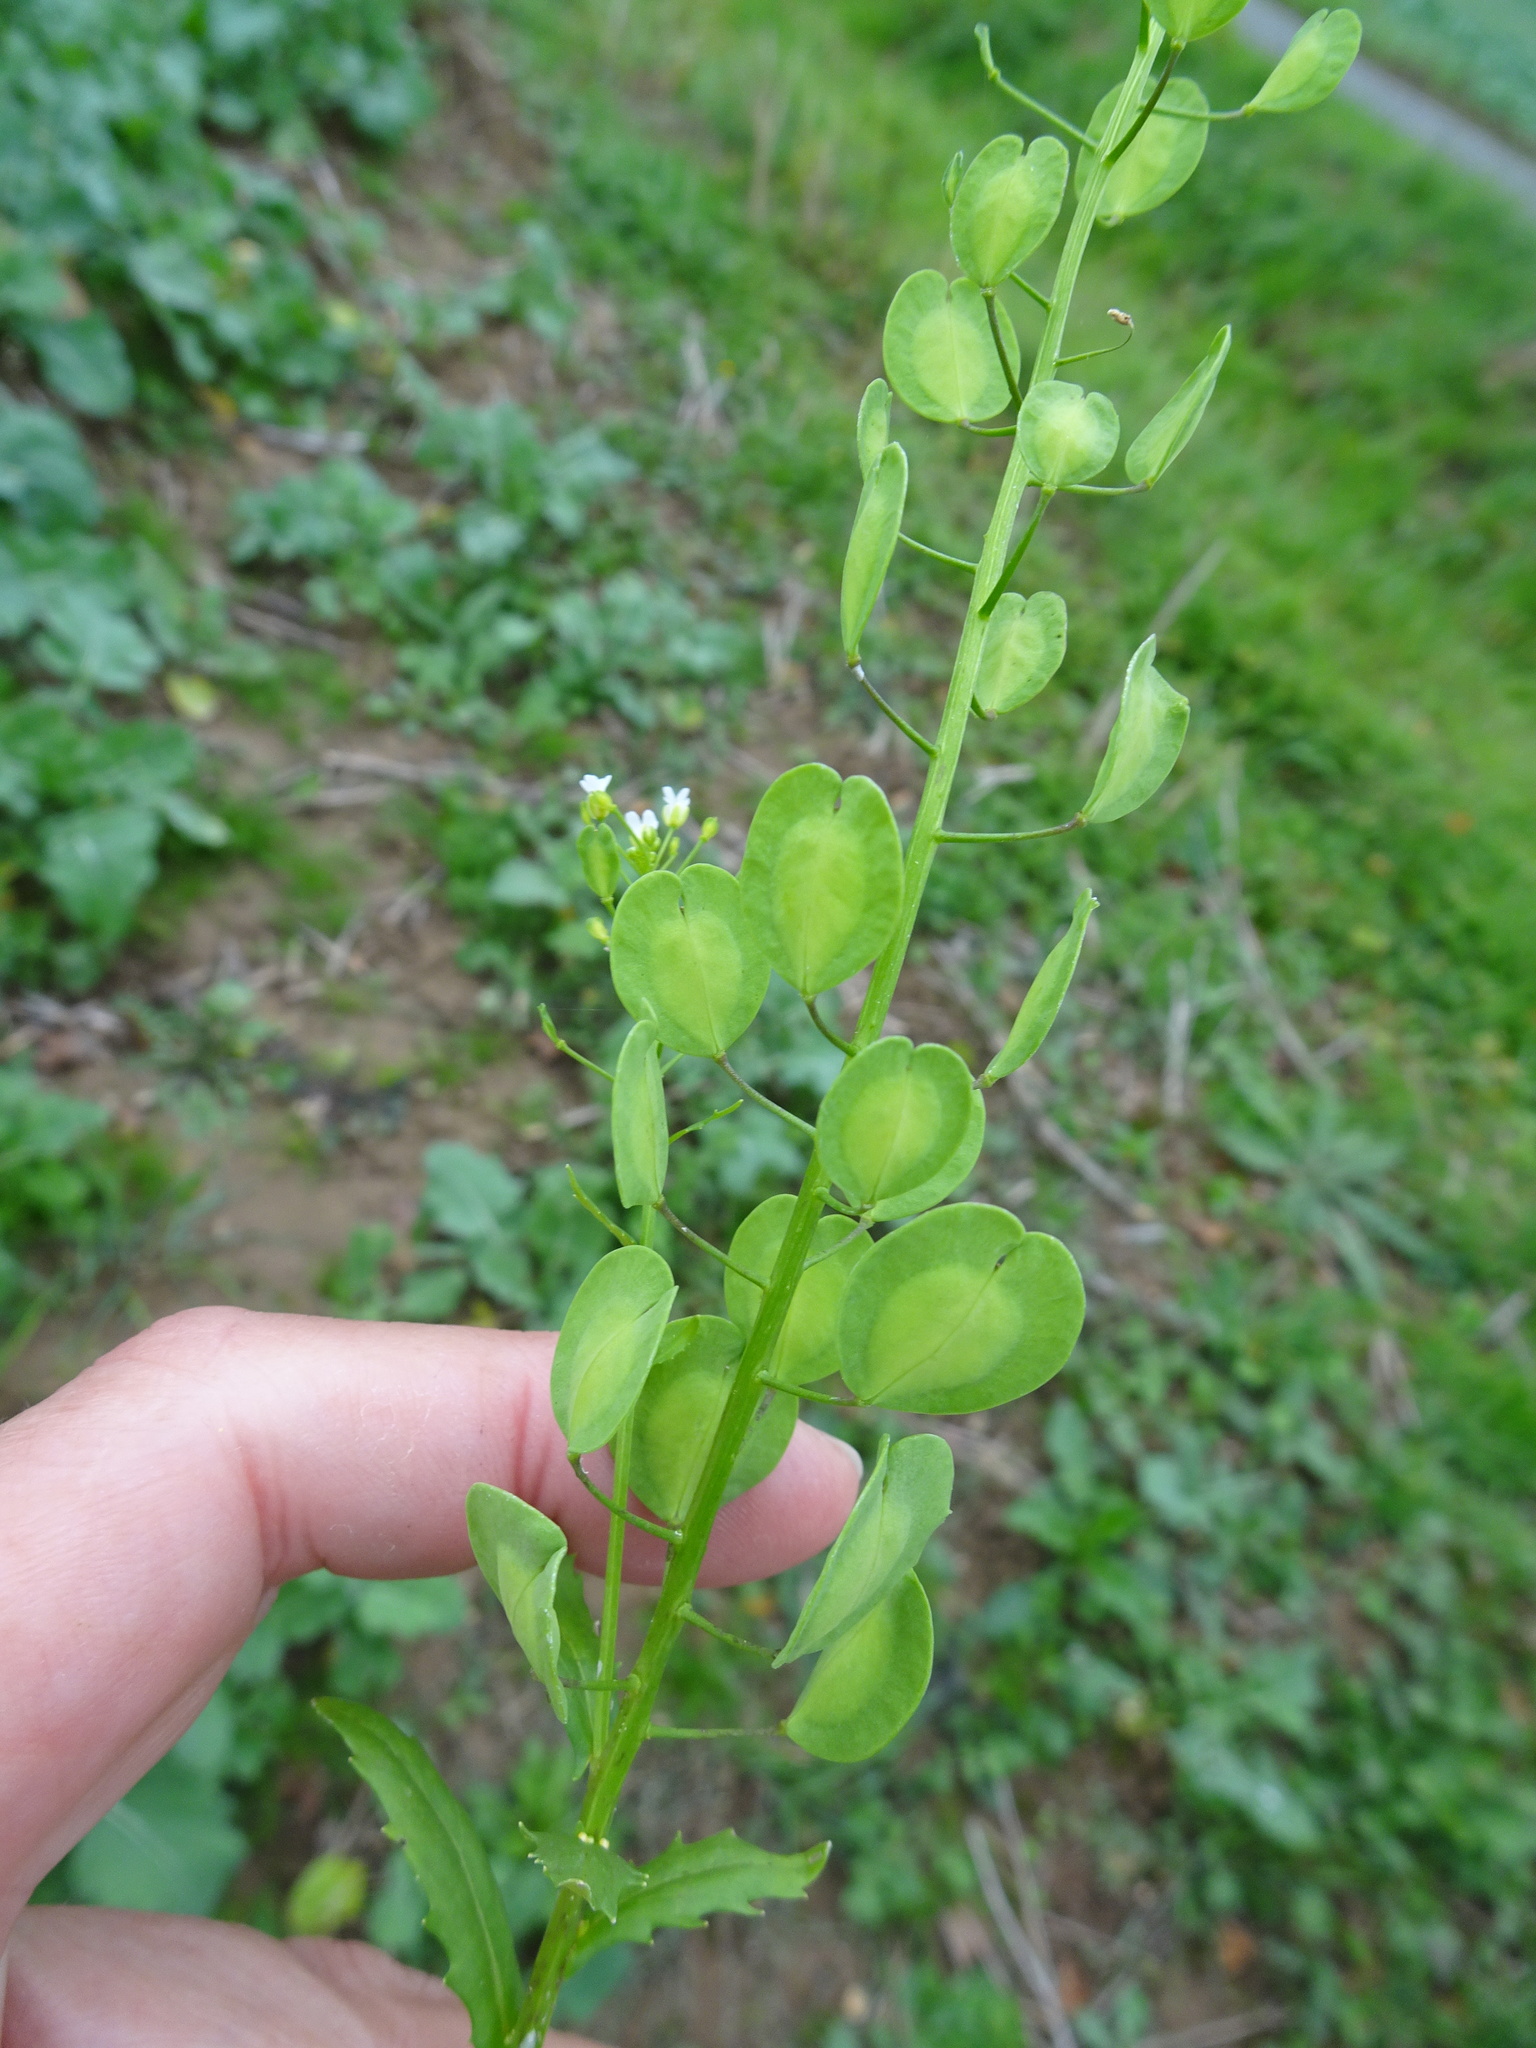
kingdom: Plantae
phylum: Tracheophyta
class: Magnoliopsida
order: Brassicales
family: Brassicaceae
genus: Thlaspi
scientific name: Thlaspi arvense
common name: Field pennycress
